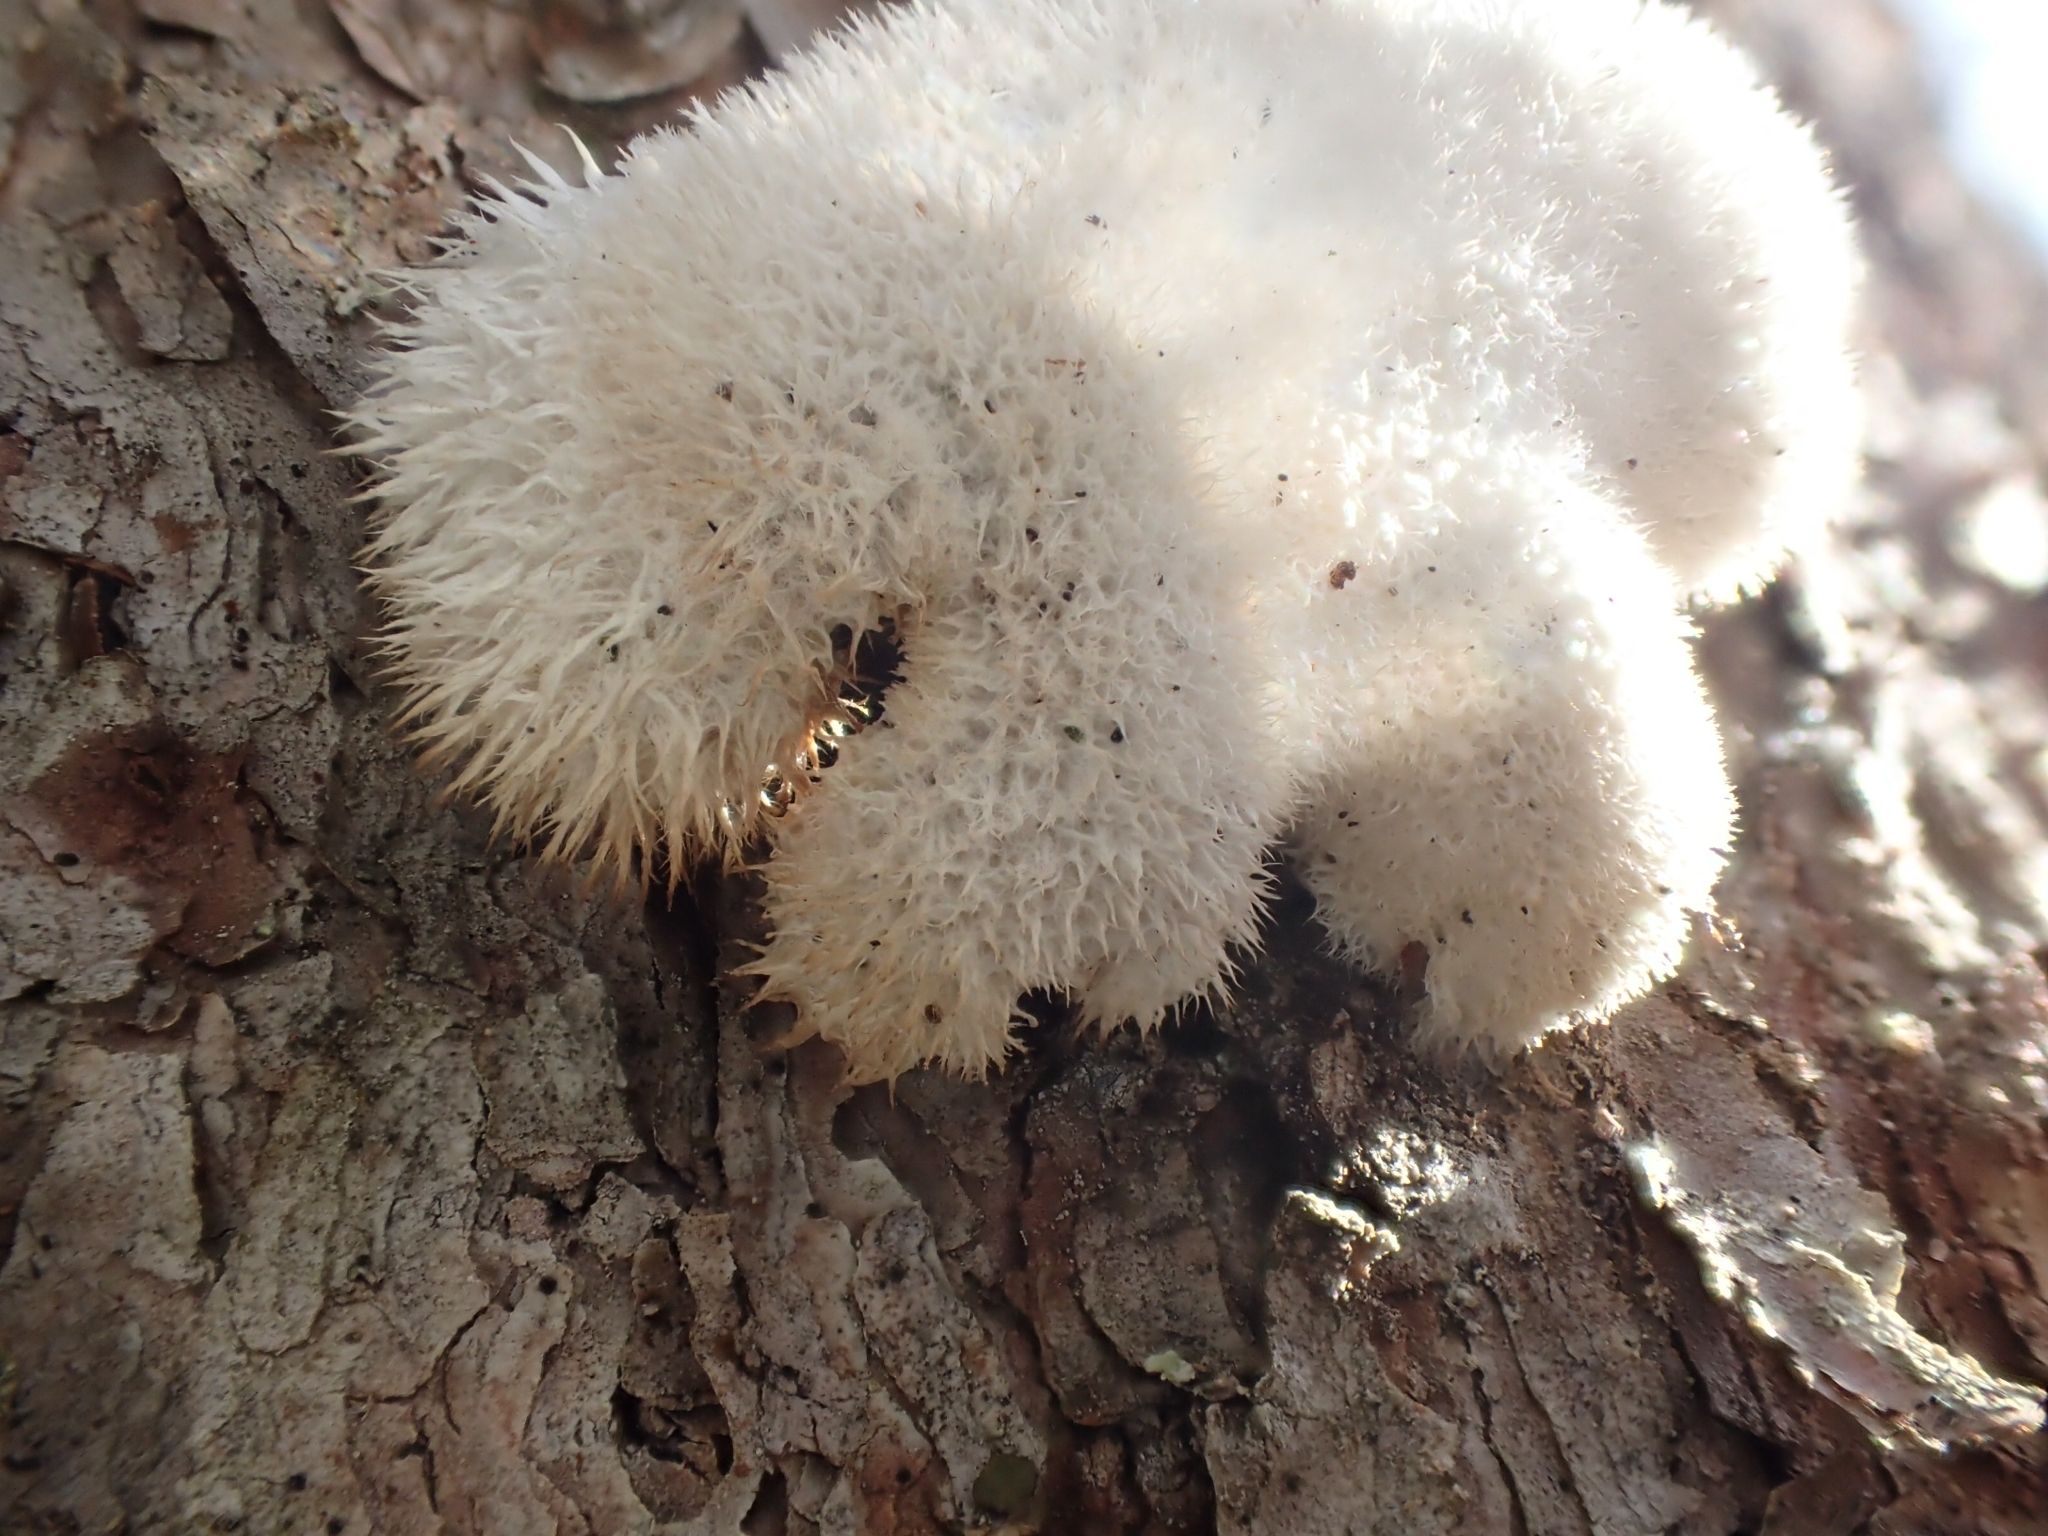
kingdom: Fungi
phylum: Basidiomycota
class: Agaricomycetes
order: Polyporales
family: Dacryobolaceae
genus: Postia
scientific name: Postia ptychogaster
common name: Powderpuff bracket
